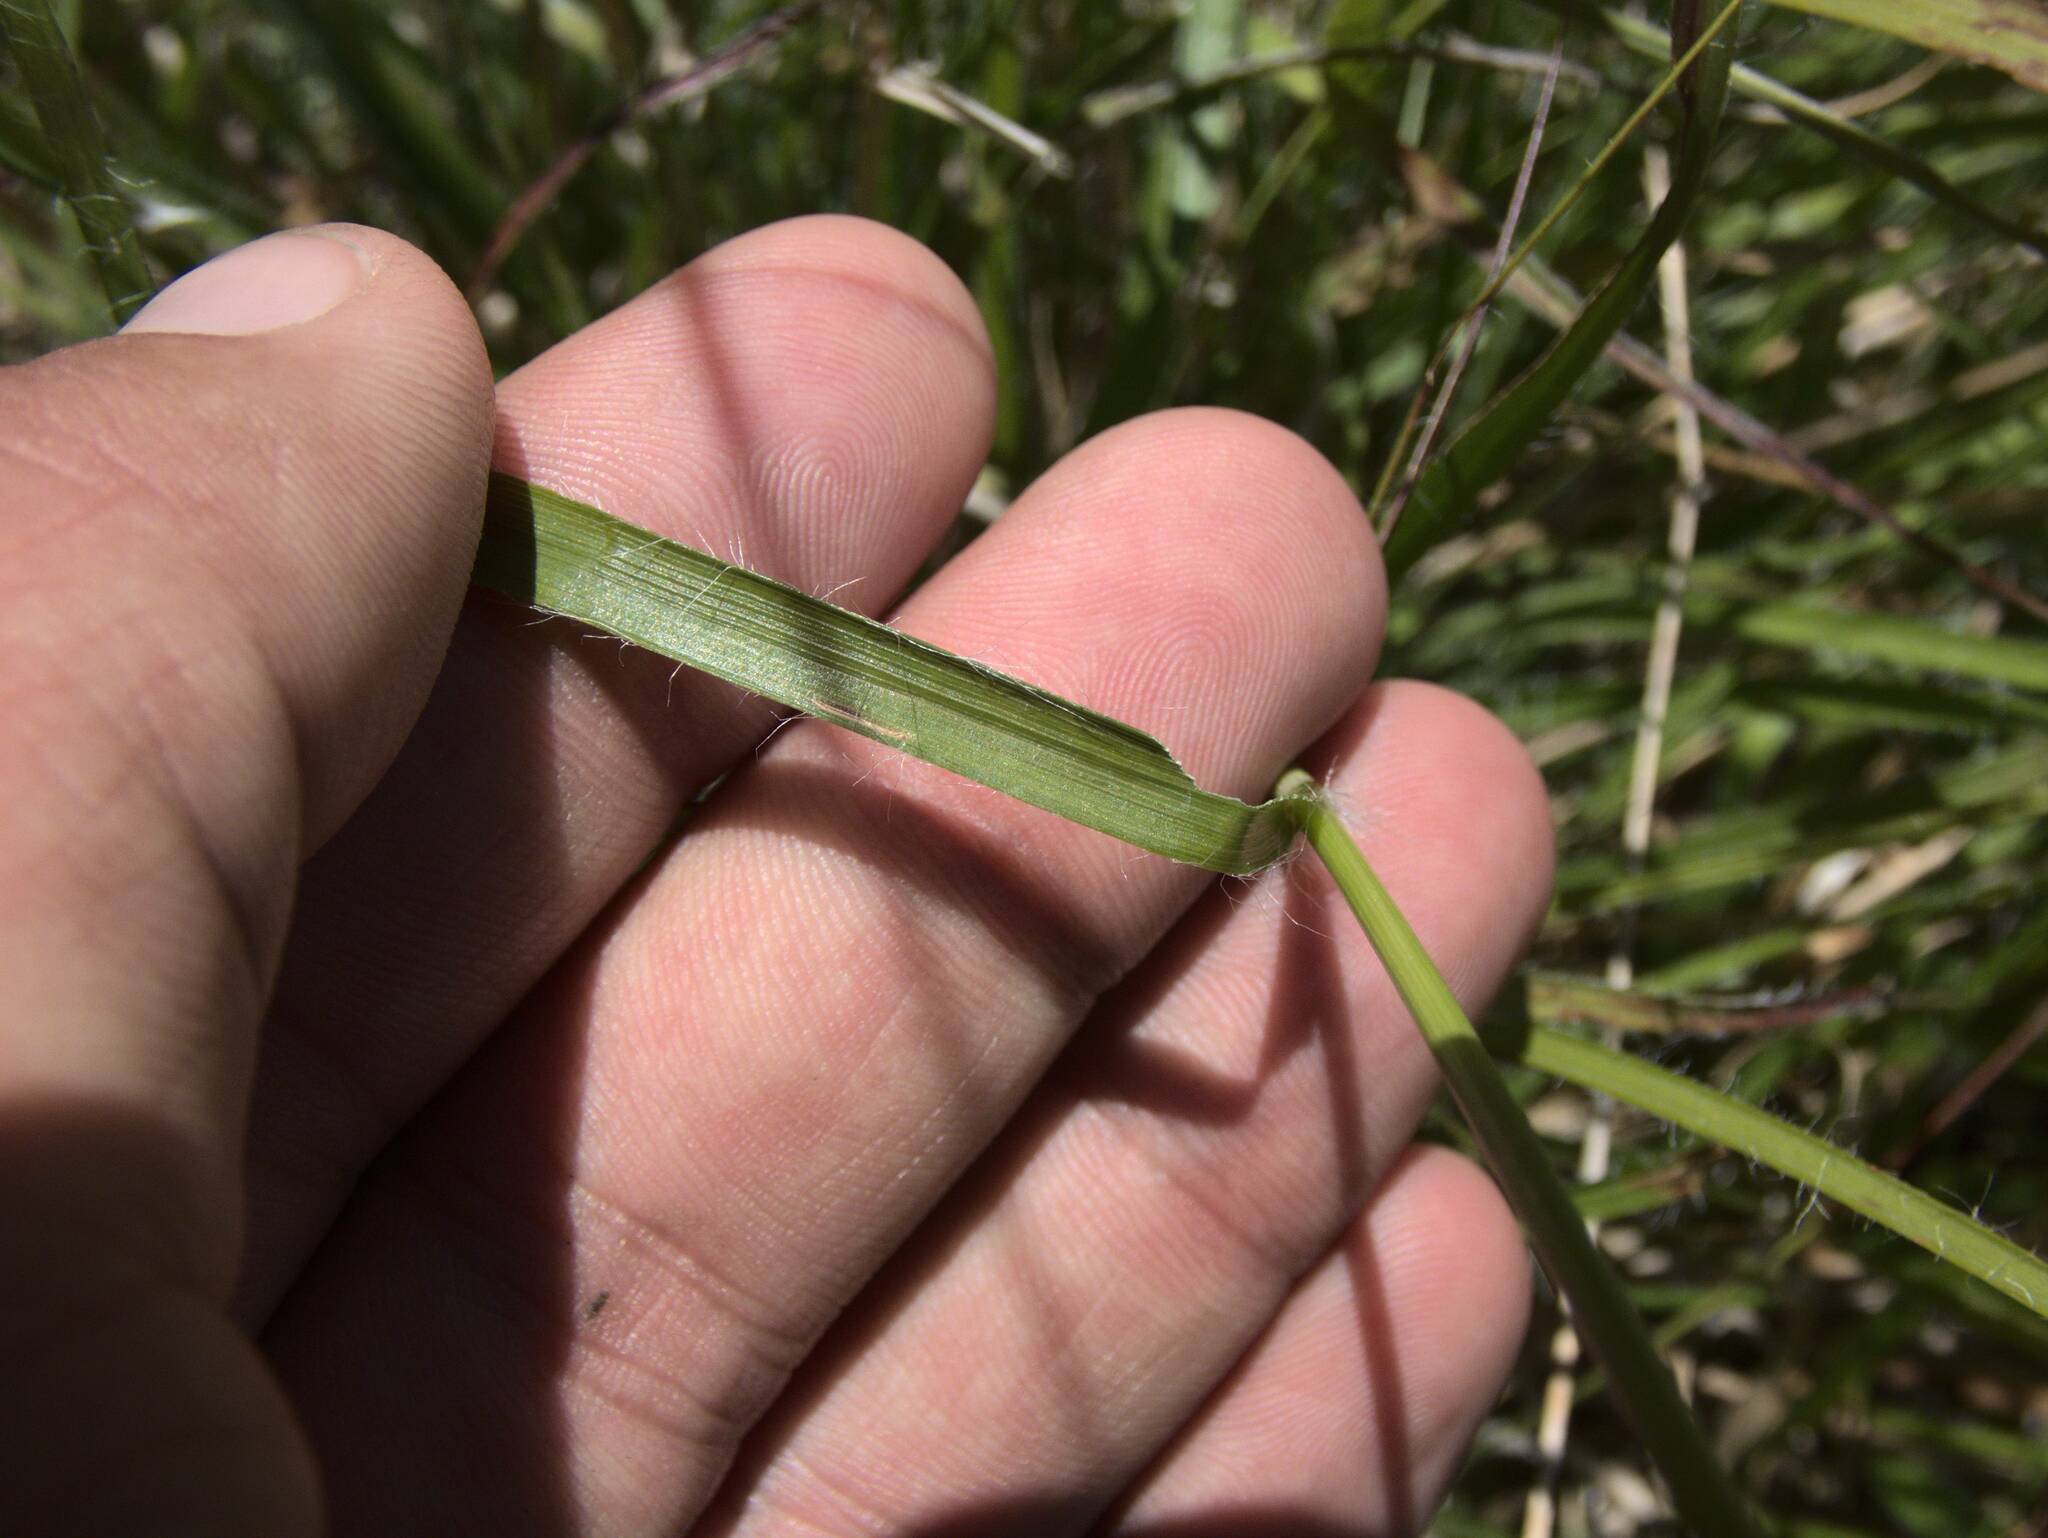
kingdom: Plantae
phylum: Tracheophyta
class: Liliopsida
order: Poales
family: Juncaceae
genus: Luzula
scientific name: Luzula nivea
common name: Snow-white wood-rush
